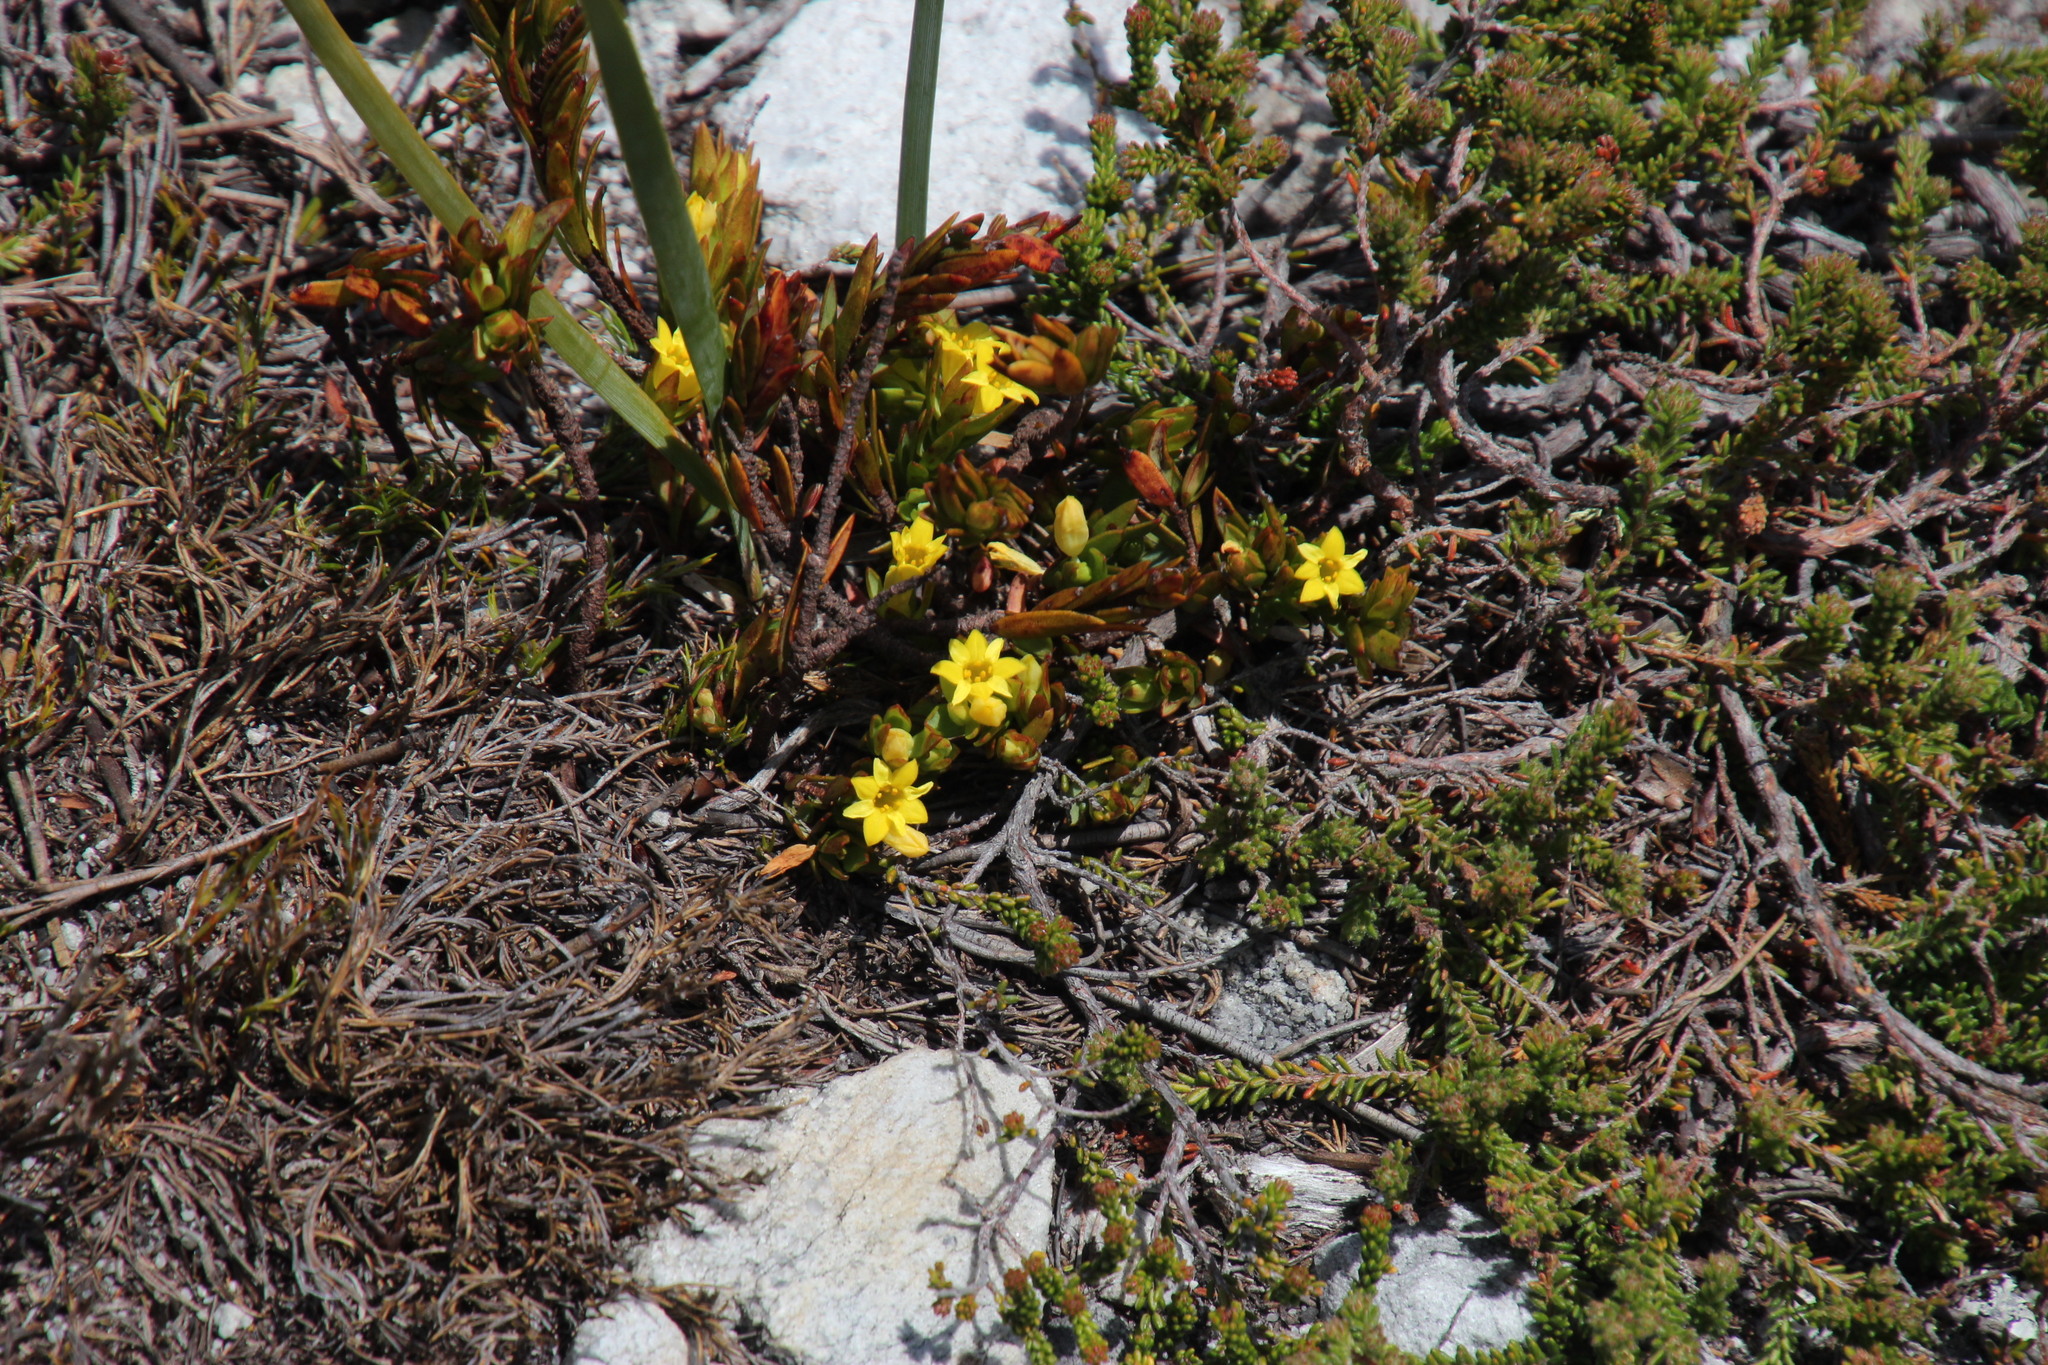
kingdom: Plantae
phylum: Tracheophyta
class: Magnoliopsida
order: Malvales
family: Thymelaeaceae
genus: Gnidia
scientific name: Gnidia juniperifolia
